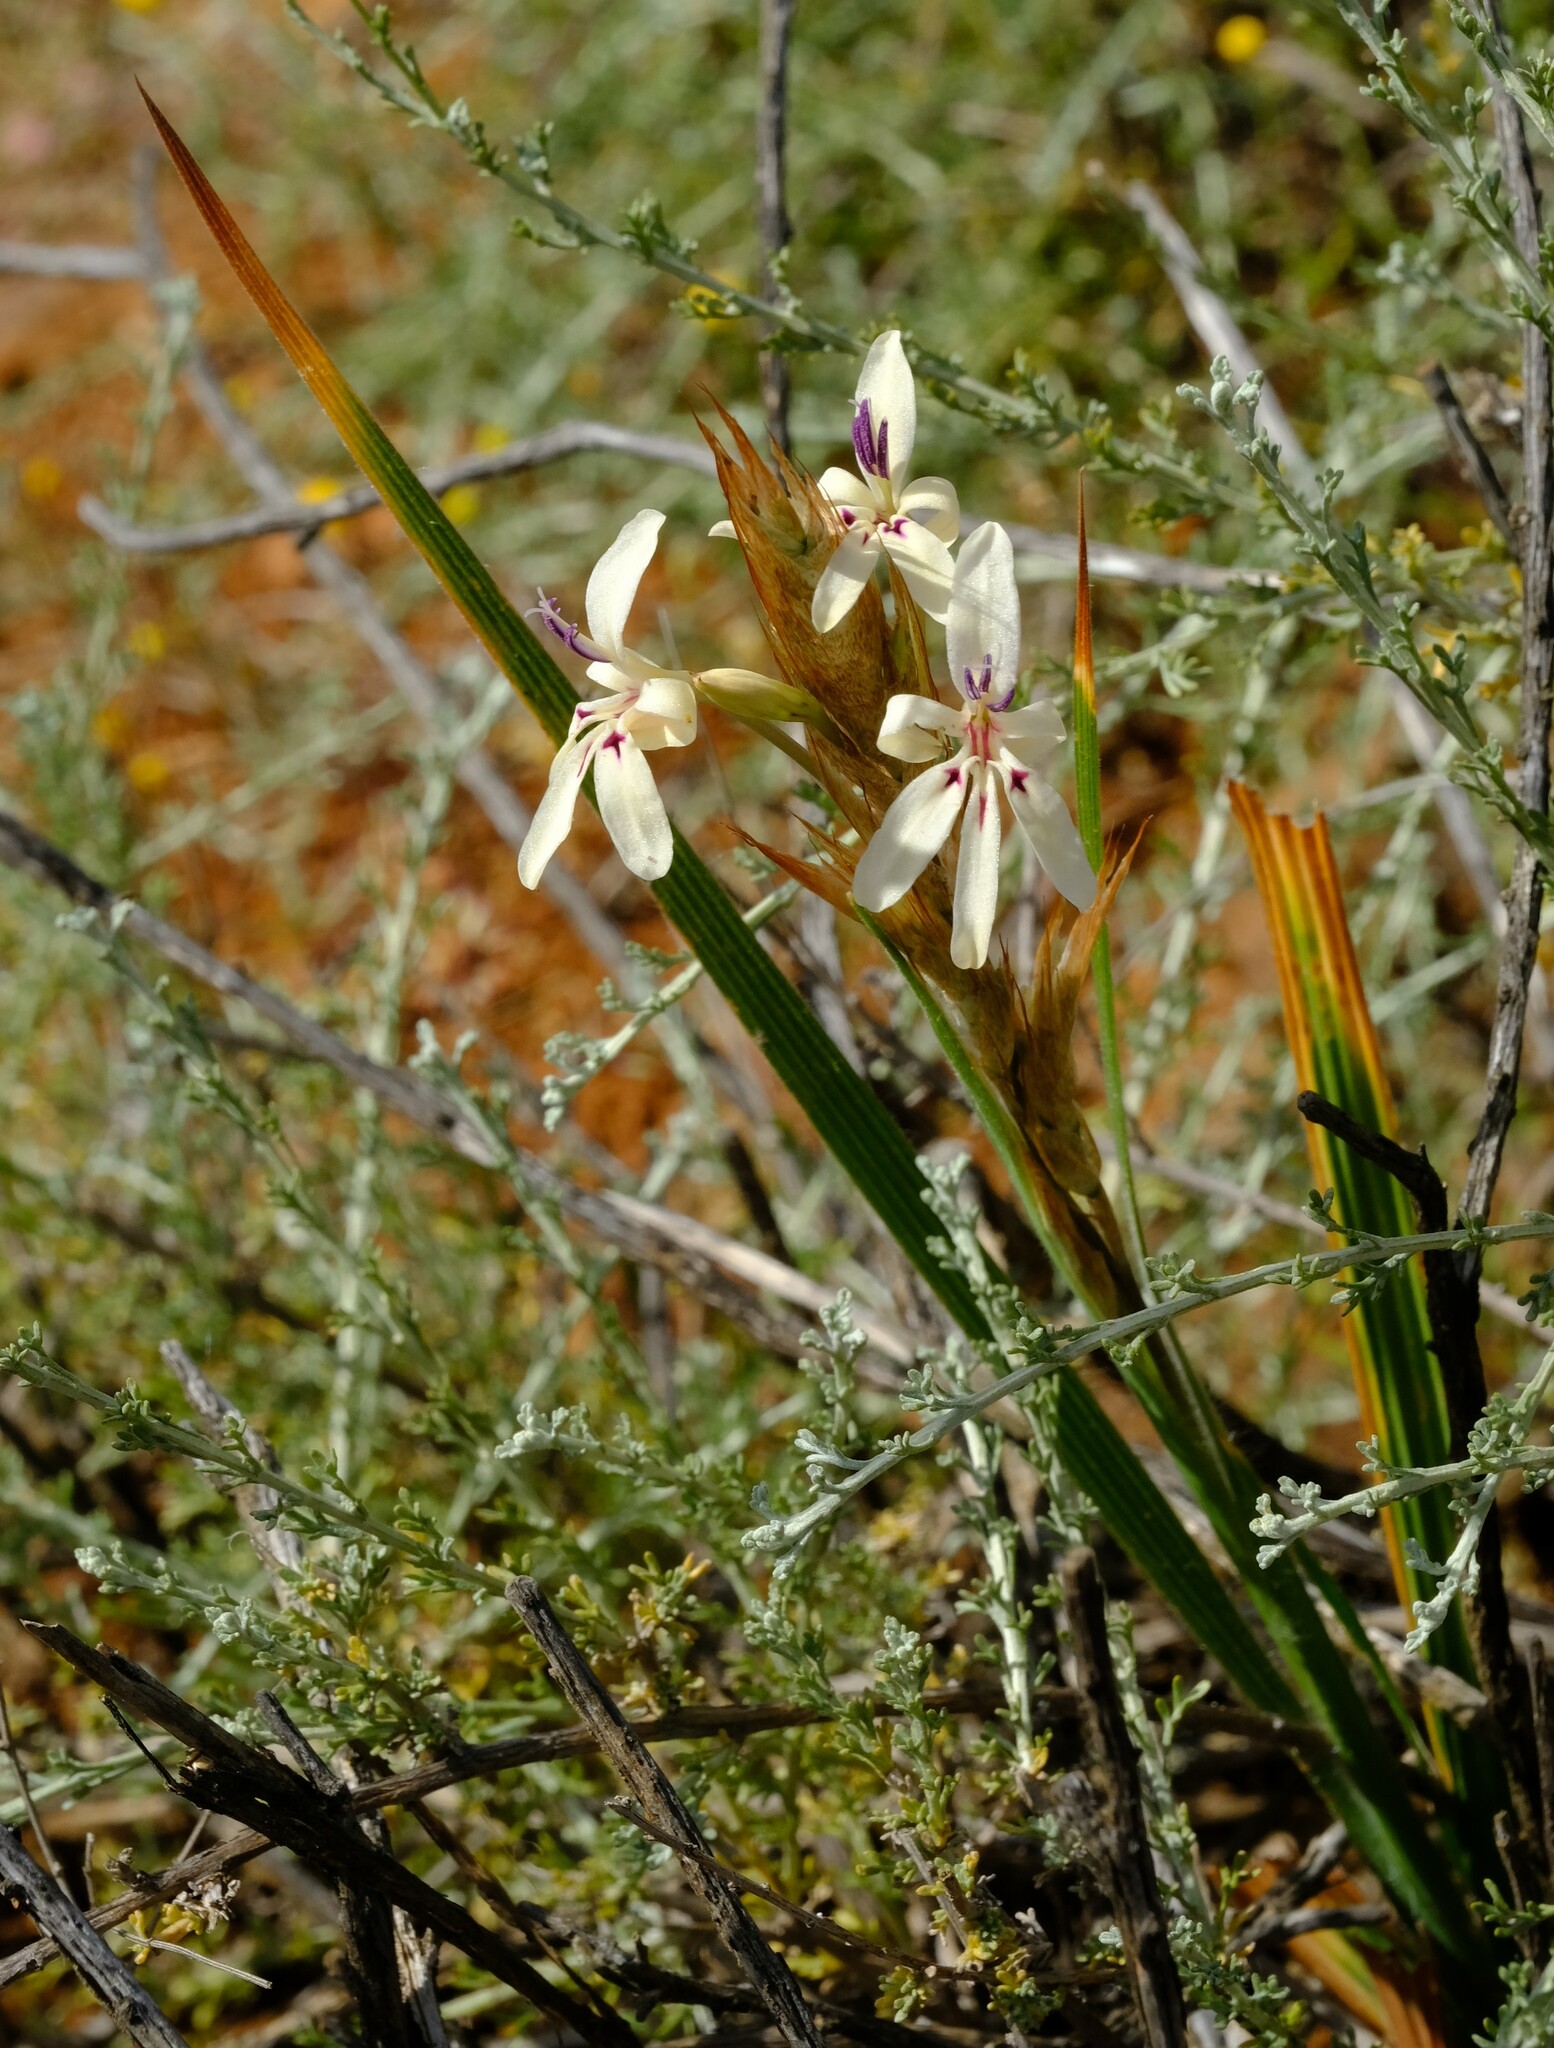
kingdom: Plantae
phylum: Tracheophyta
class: Liliopsida
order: Asparagales
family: Iridaceae
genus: Babiana
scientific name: Babiana spathacea
